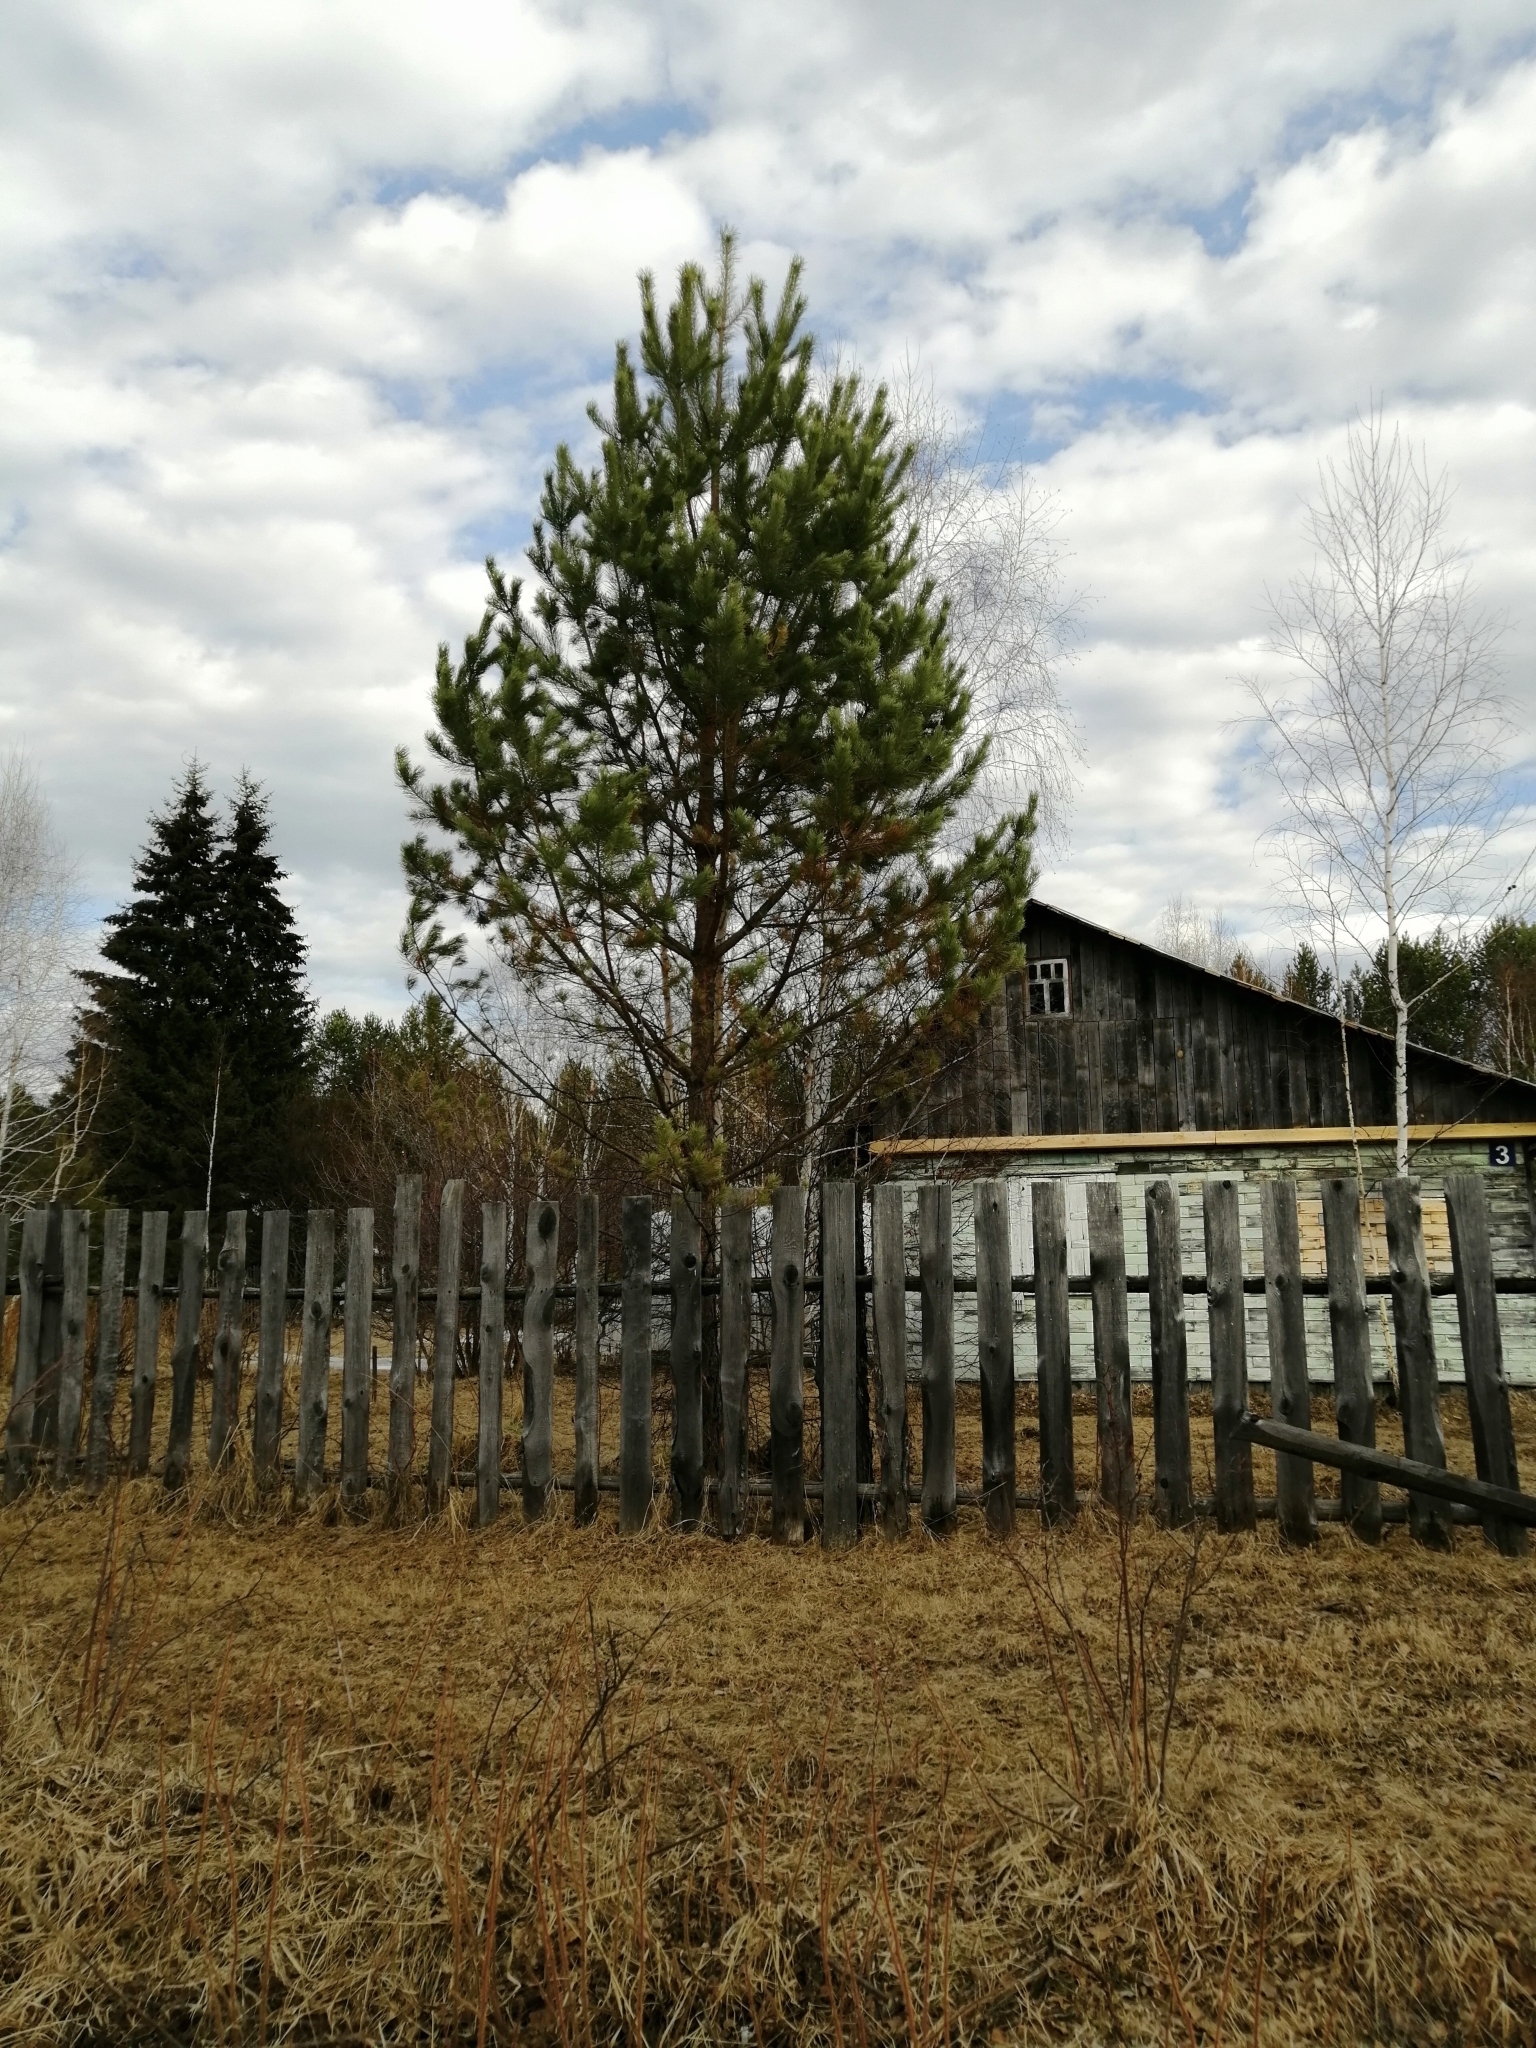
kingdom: Plantae
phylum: Tracheophyta
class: Pinopsida
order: Pinales
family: Pinaceae
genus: Pinus
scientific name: Pinus sylvestris
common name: Scots pine
